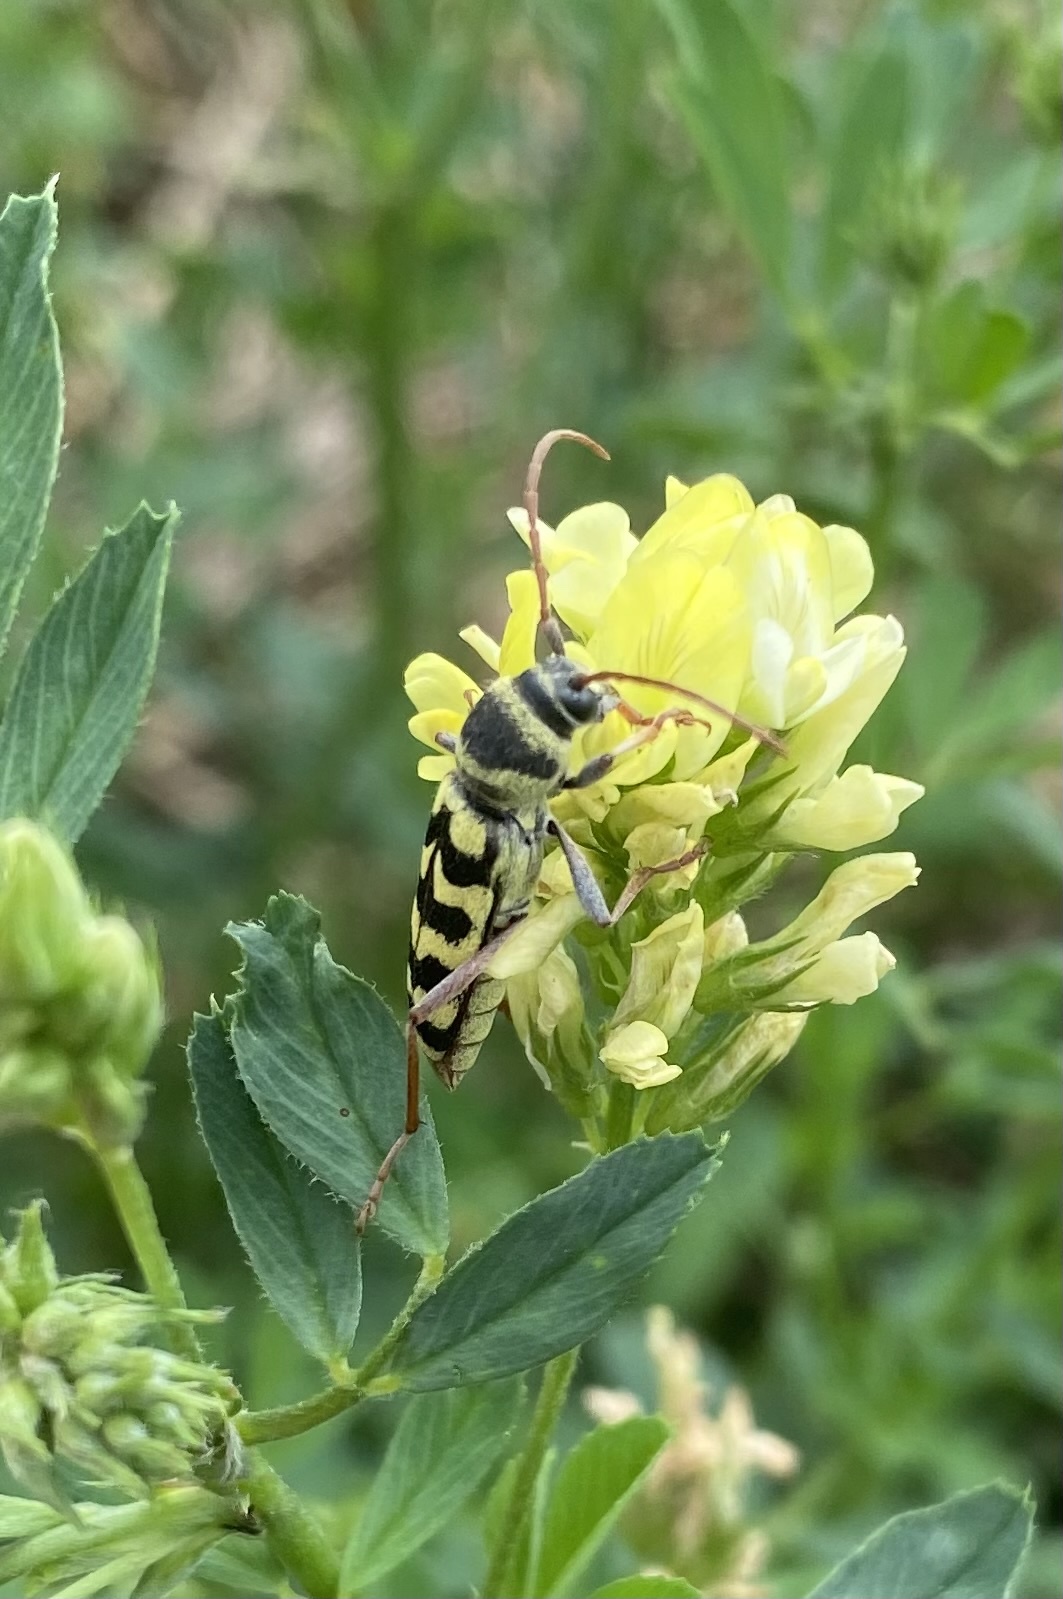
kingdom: Animalia
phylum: Arthropoda
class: Insecta
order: Coleoptera
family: Cerambycidae
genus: Plagionotus
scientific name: Plagionotus floralis
